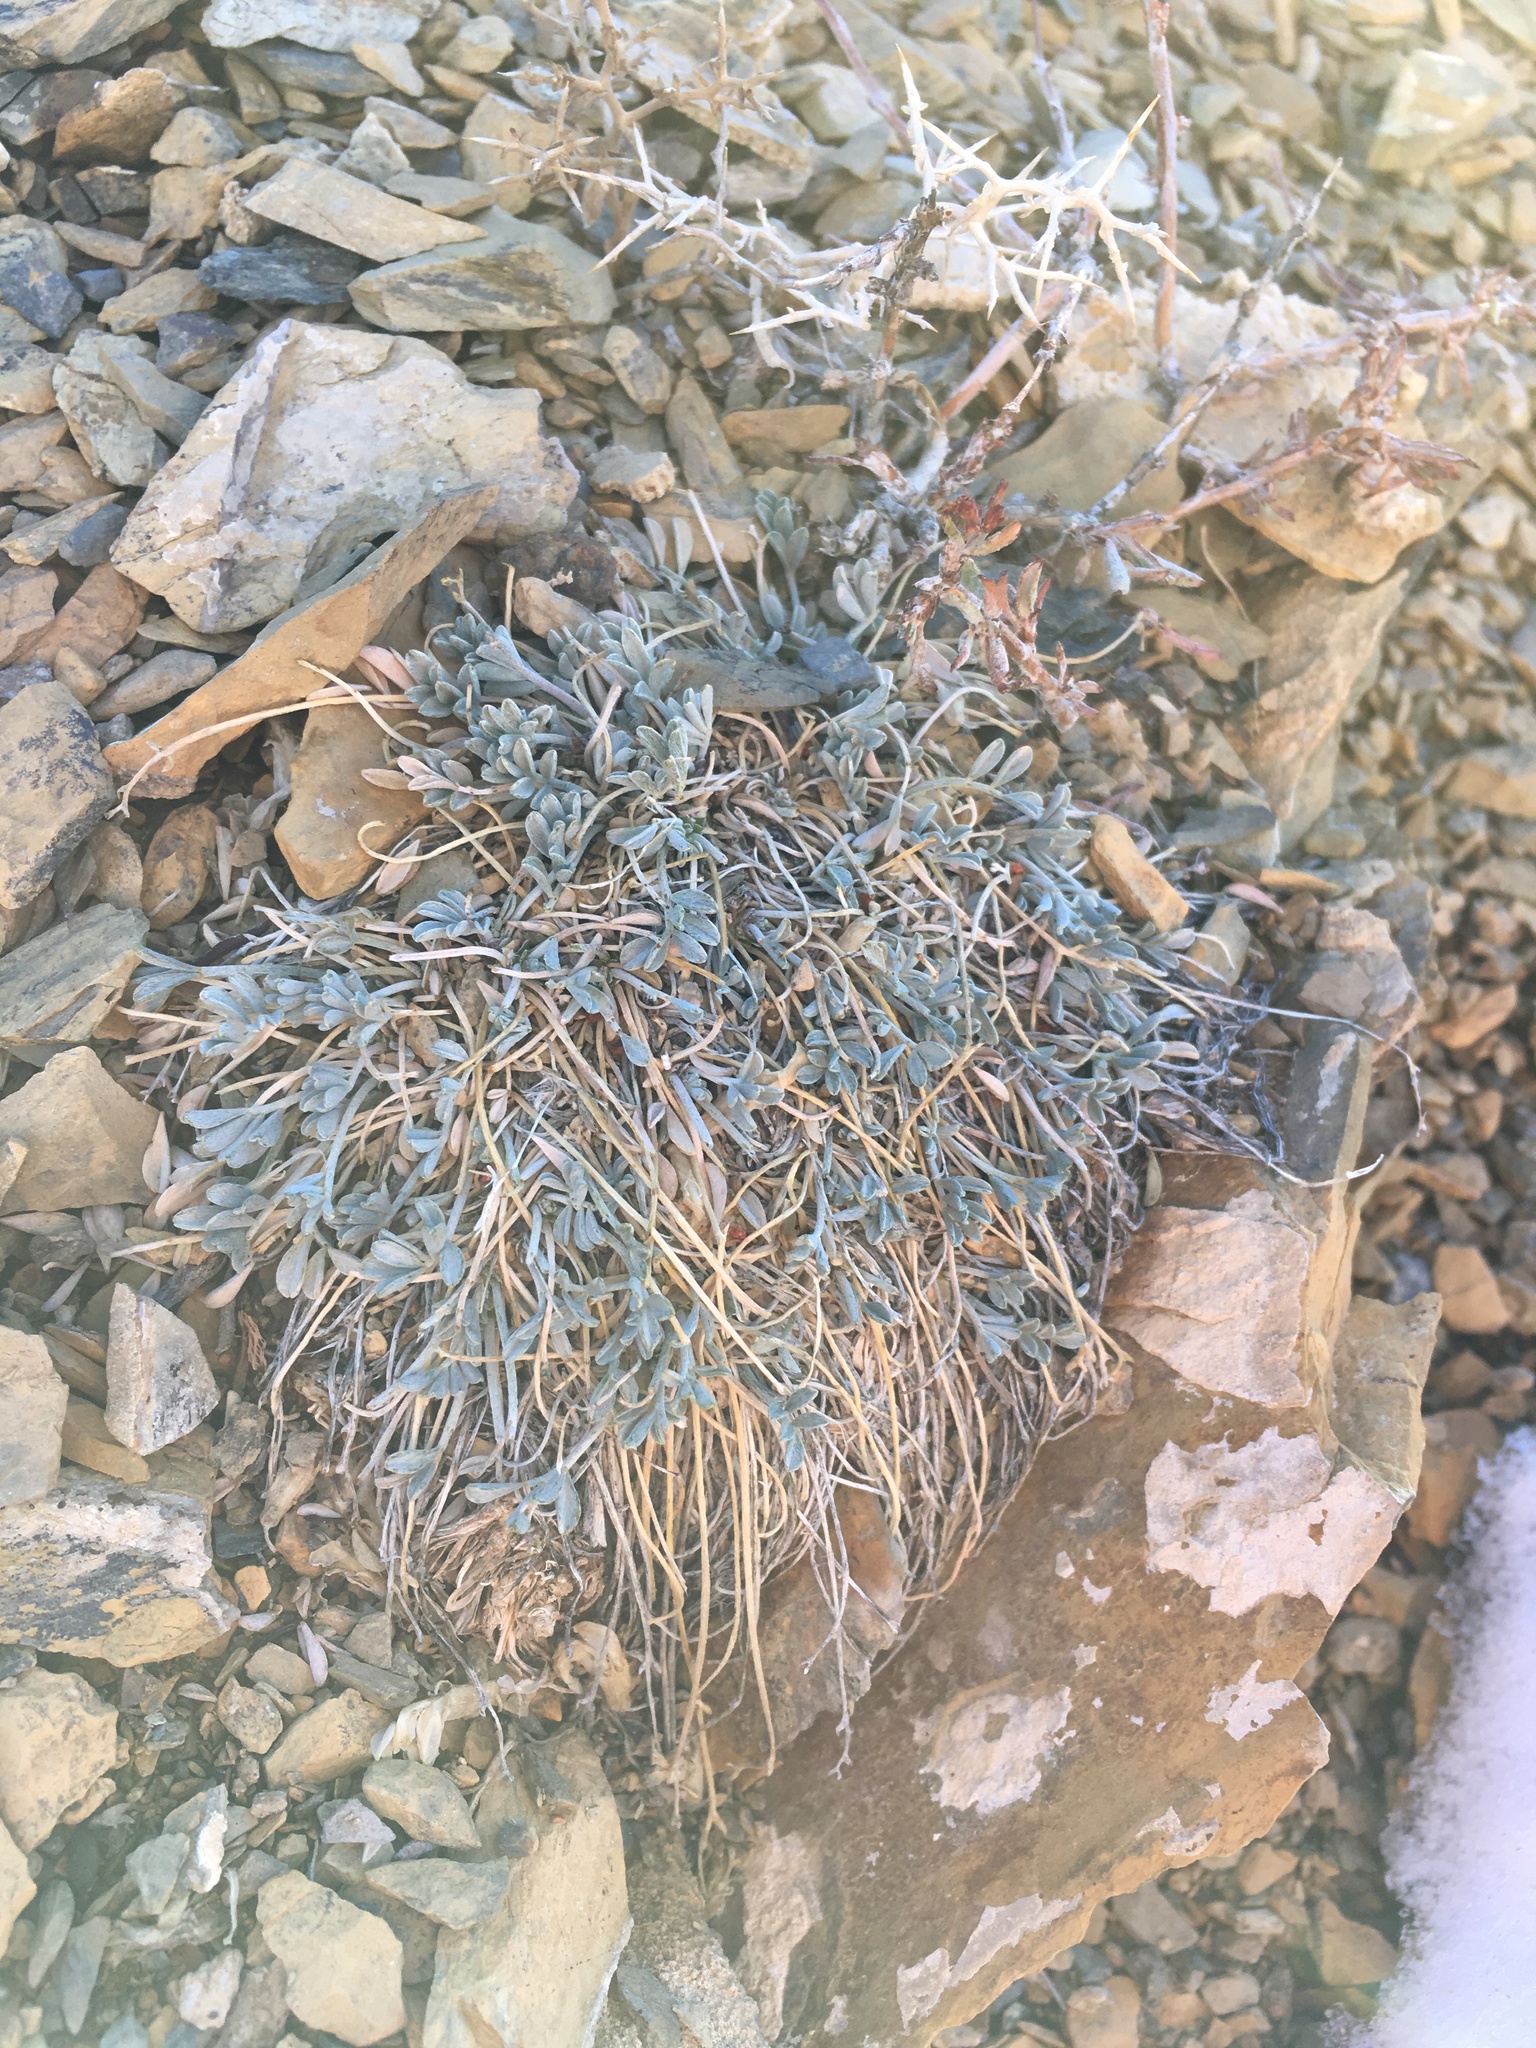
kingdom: Plantae
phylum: Tracheophyta
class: Magnoliopsida
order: Fabales
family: Fabaceae
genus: Astragalus
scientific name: Astragalus calycosus
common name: King's milkvetch
